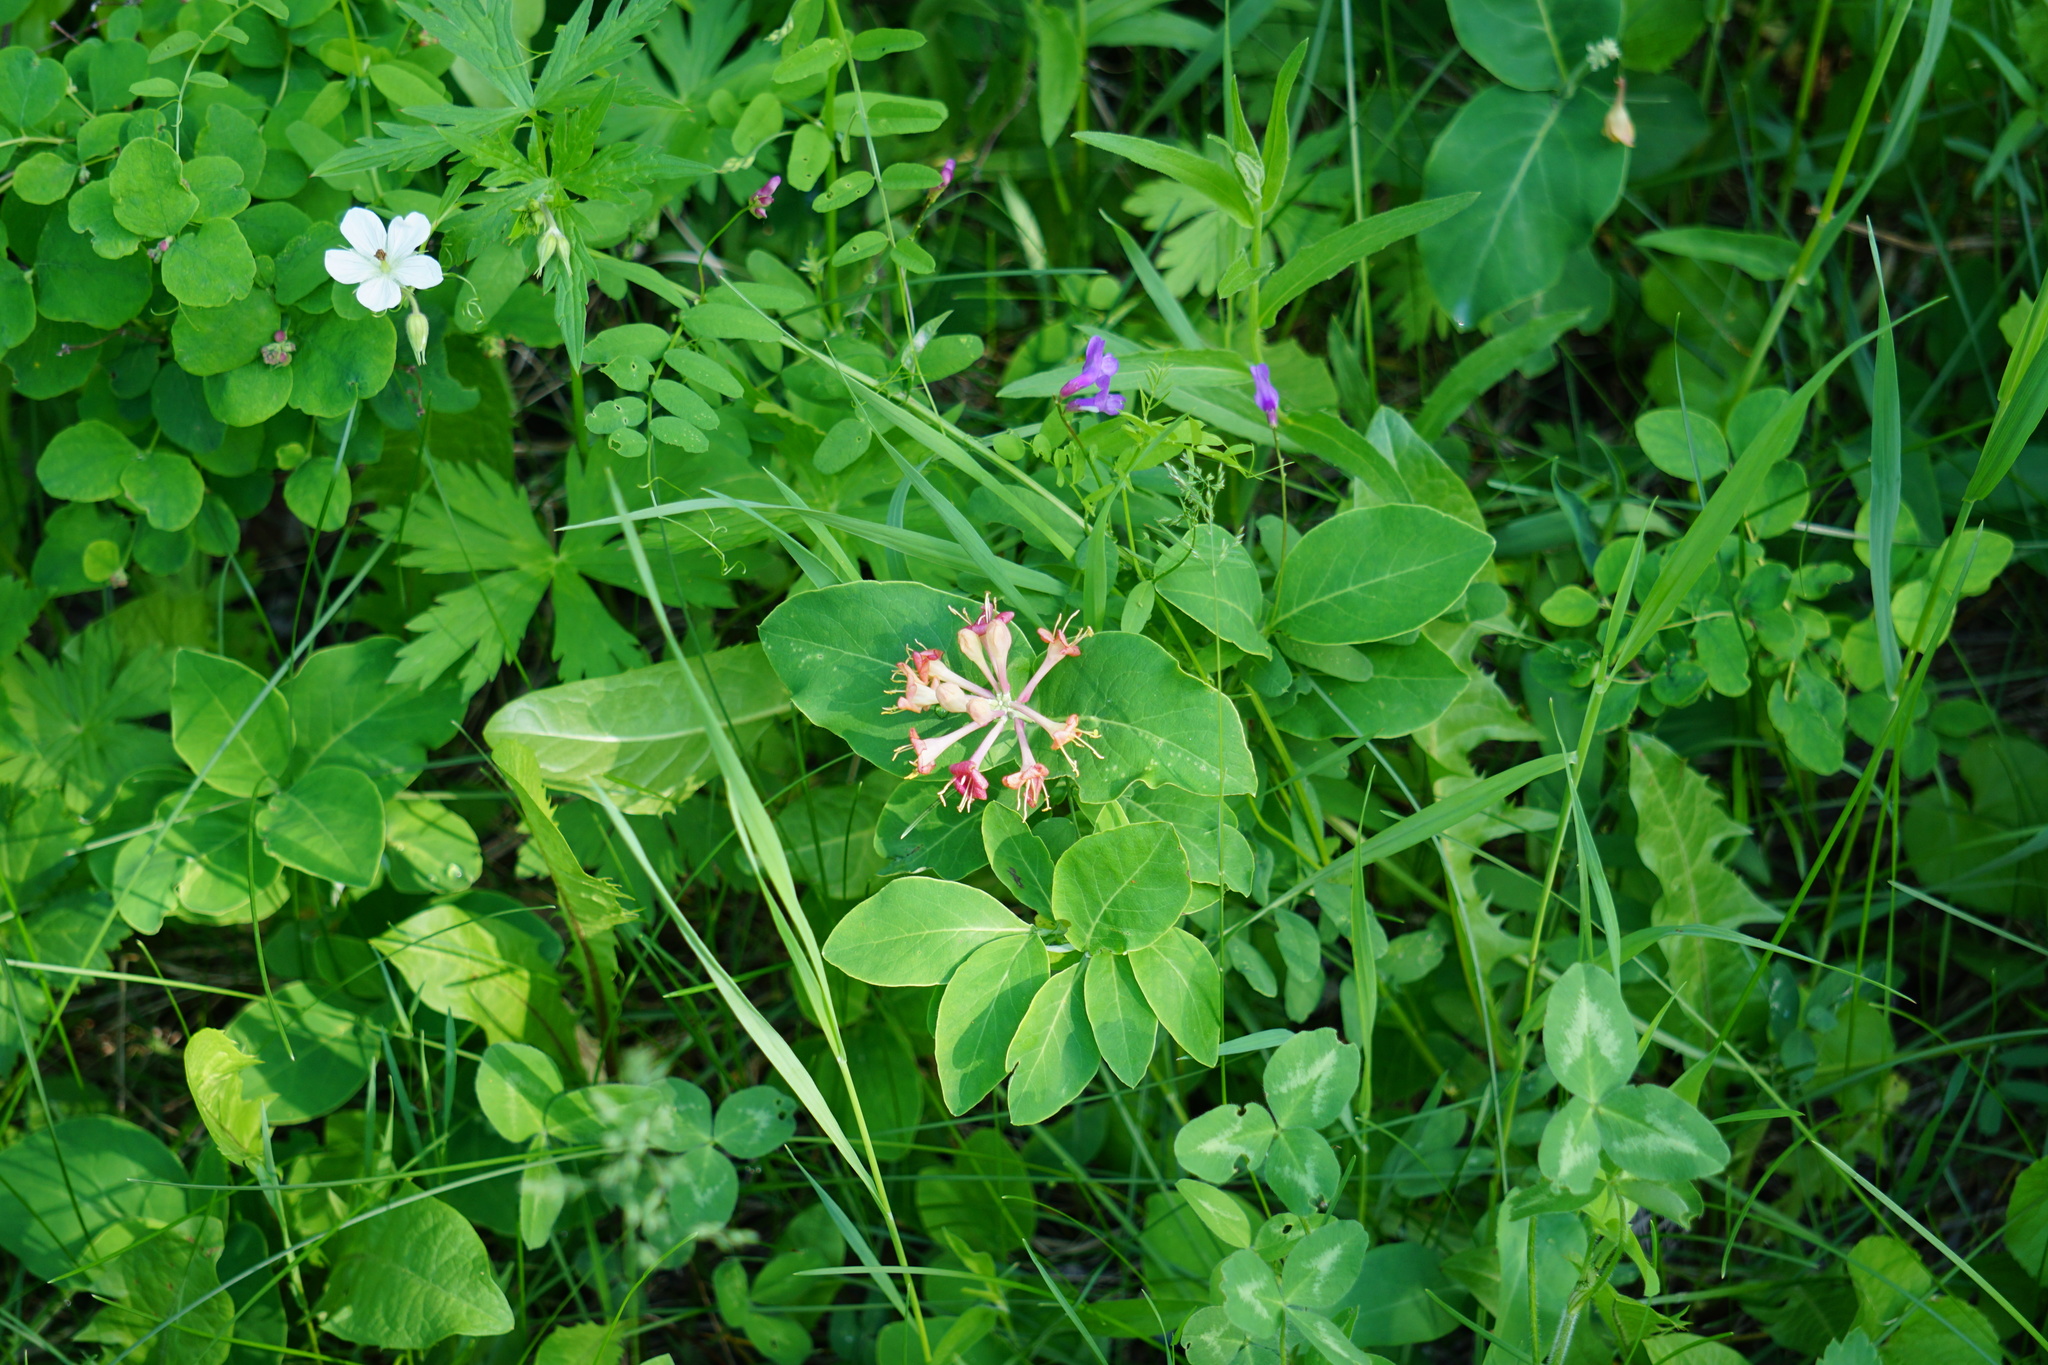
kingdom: Plantae
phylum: Tracheophyta
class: Magnoliopsida
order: Dipsacales
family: Caprifoliaceae
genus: Lonicera
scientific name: Lonicera dioica
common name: Limber honeysuckle
